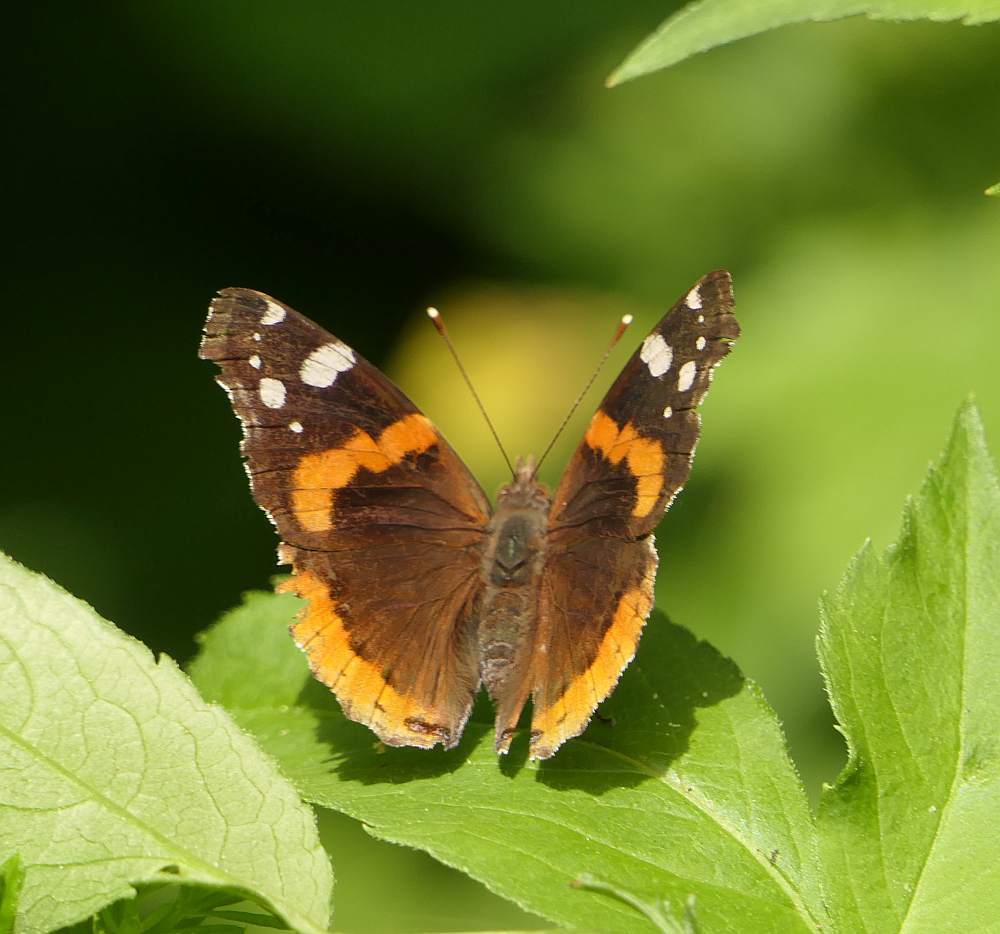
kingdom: Animalia
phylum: Arthropoda
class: Insecta
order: Lepidoptera
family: Nymphalidae
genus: Vanessa
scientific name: Vanessa atalanta
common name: Red admiral
